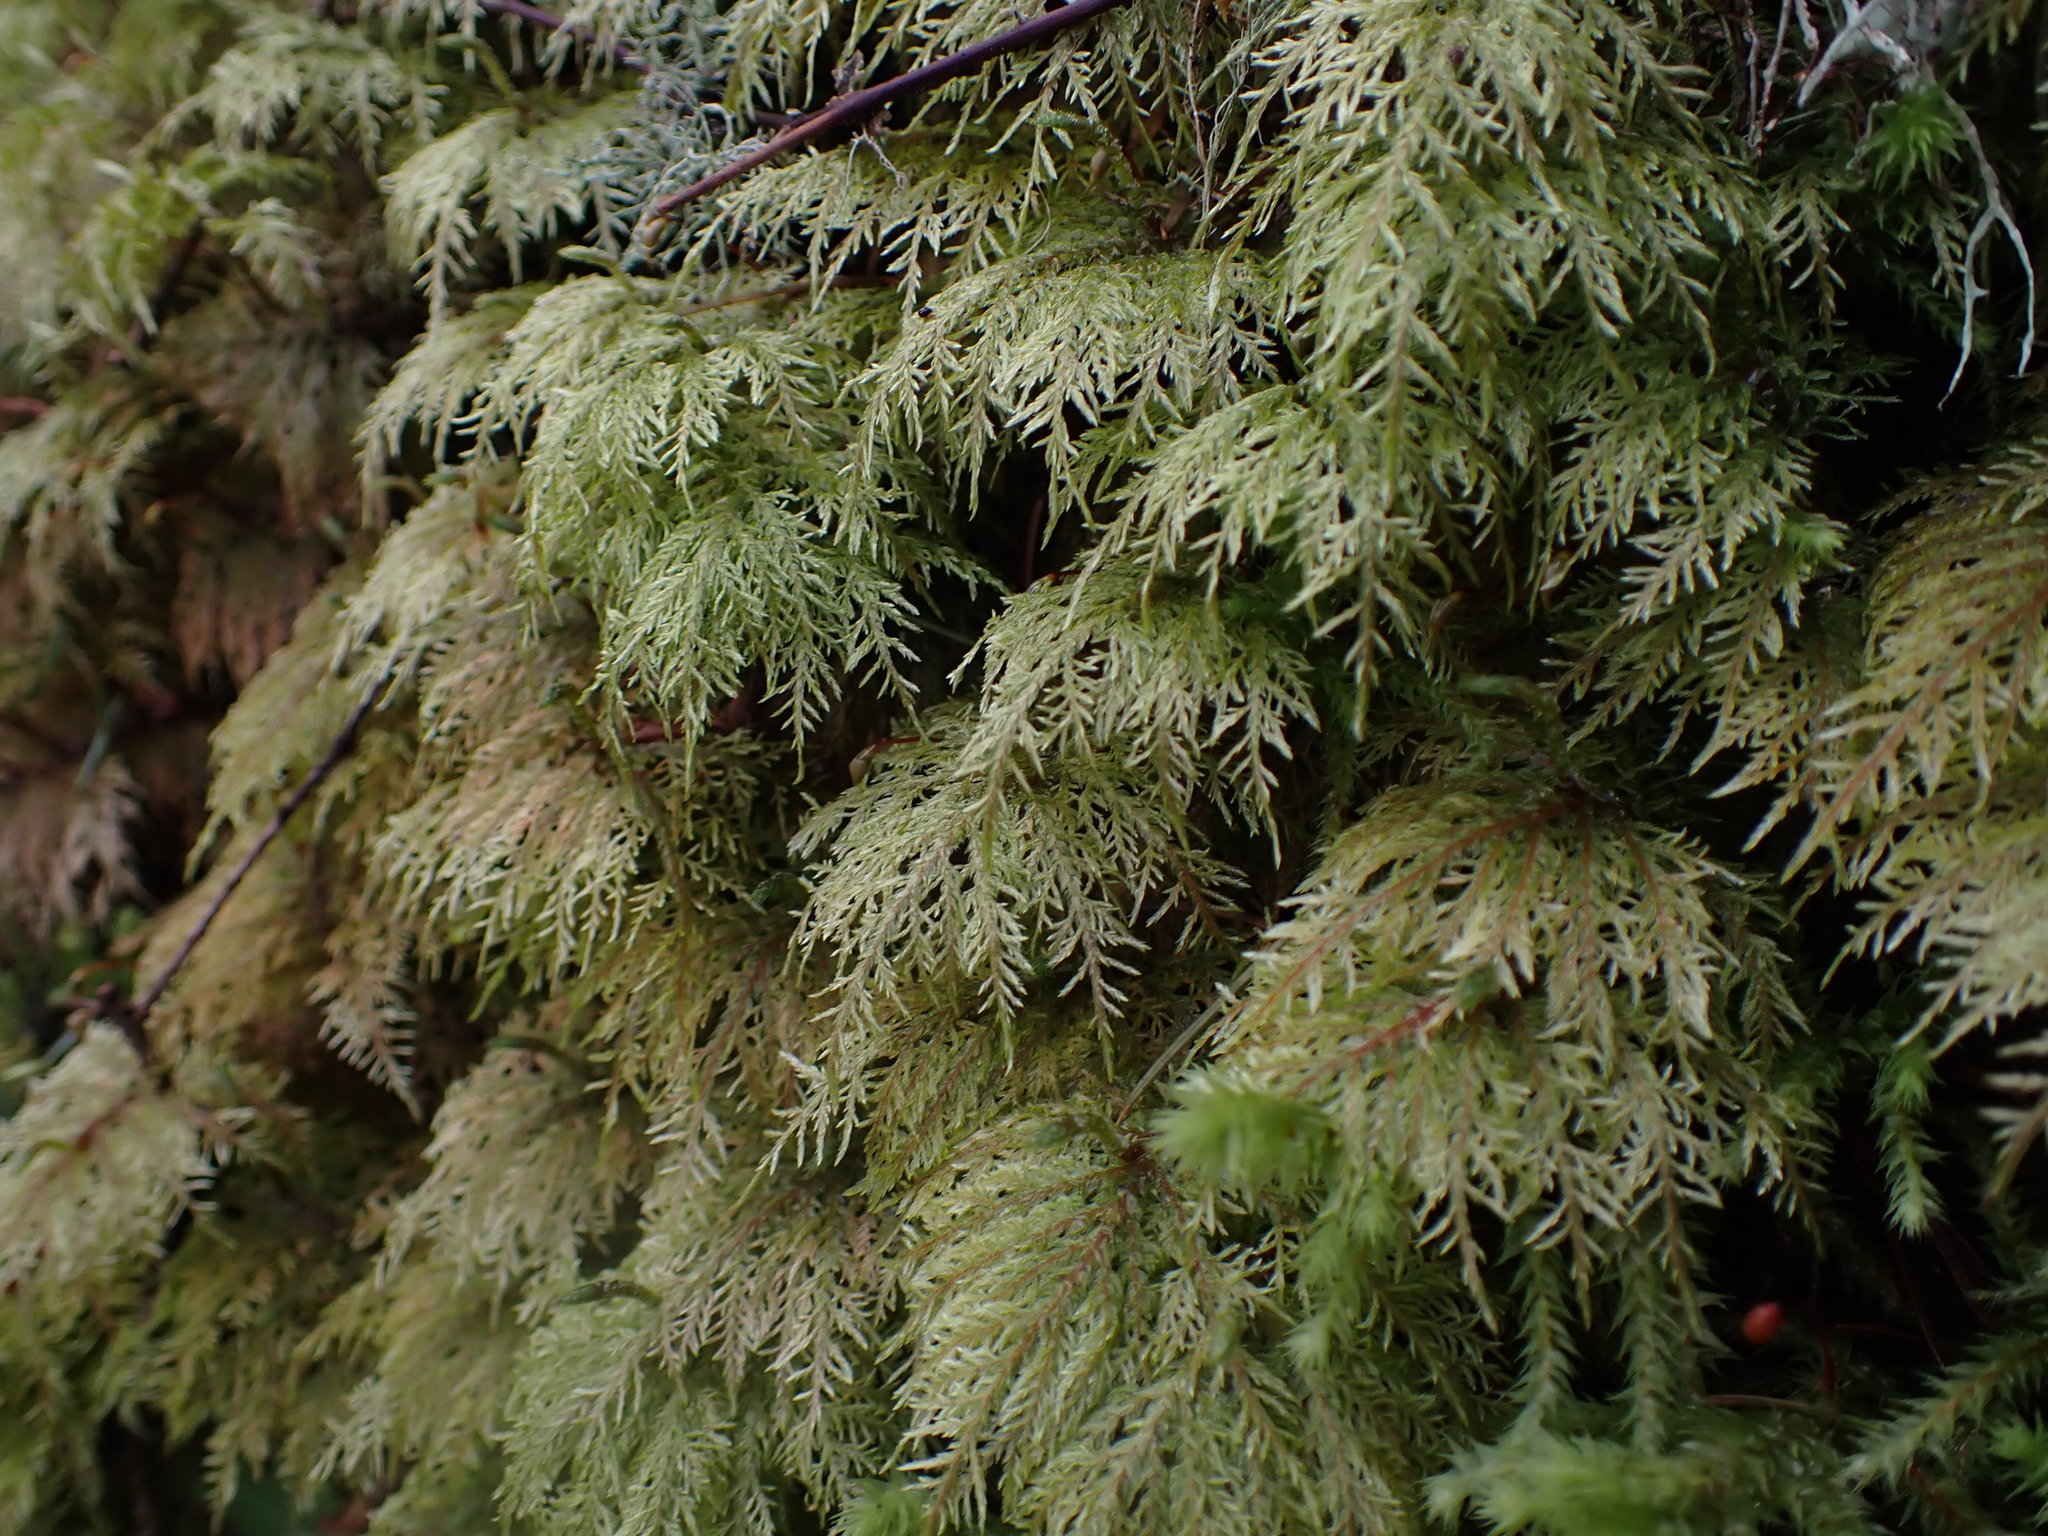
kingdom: Plantae
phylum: Bryophyta
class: Bryopsida
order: Hypnales
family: Hylocomiaceae
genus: Hylocomium
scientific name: Hylocomium splendens
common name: Stairstep moss
